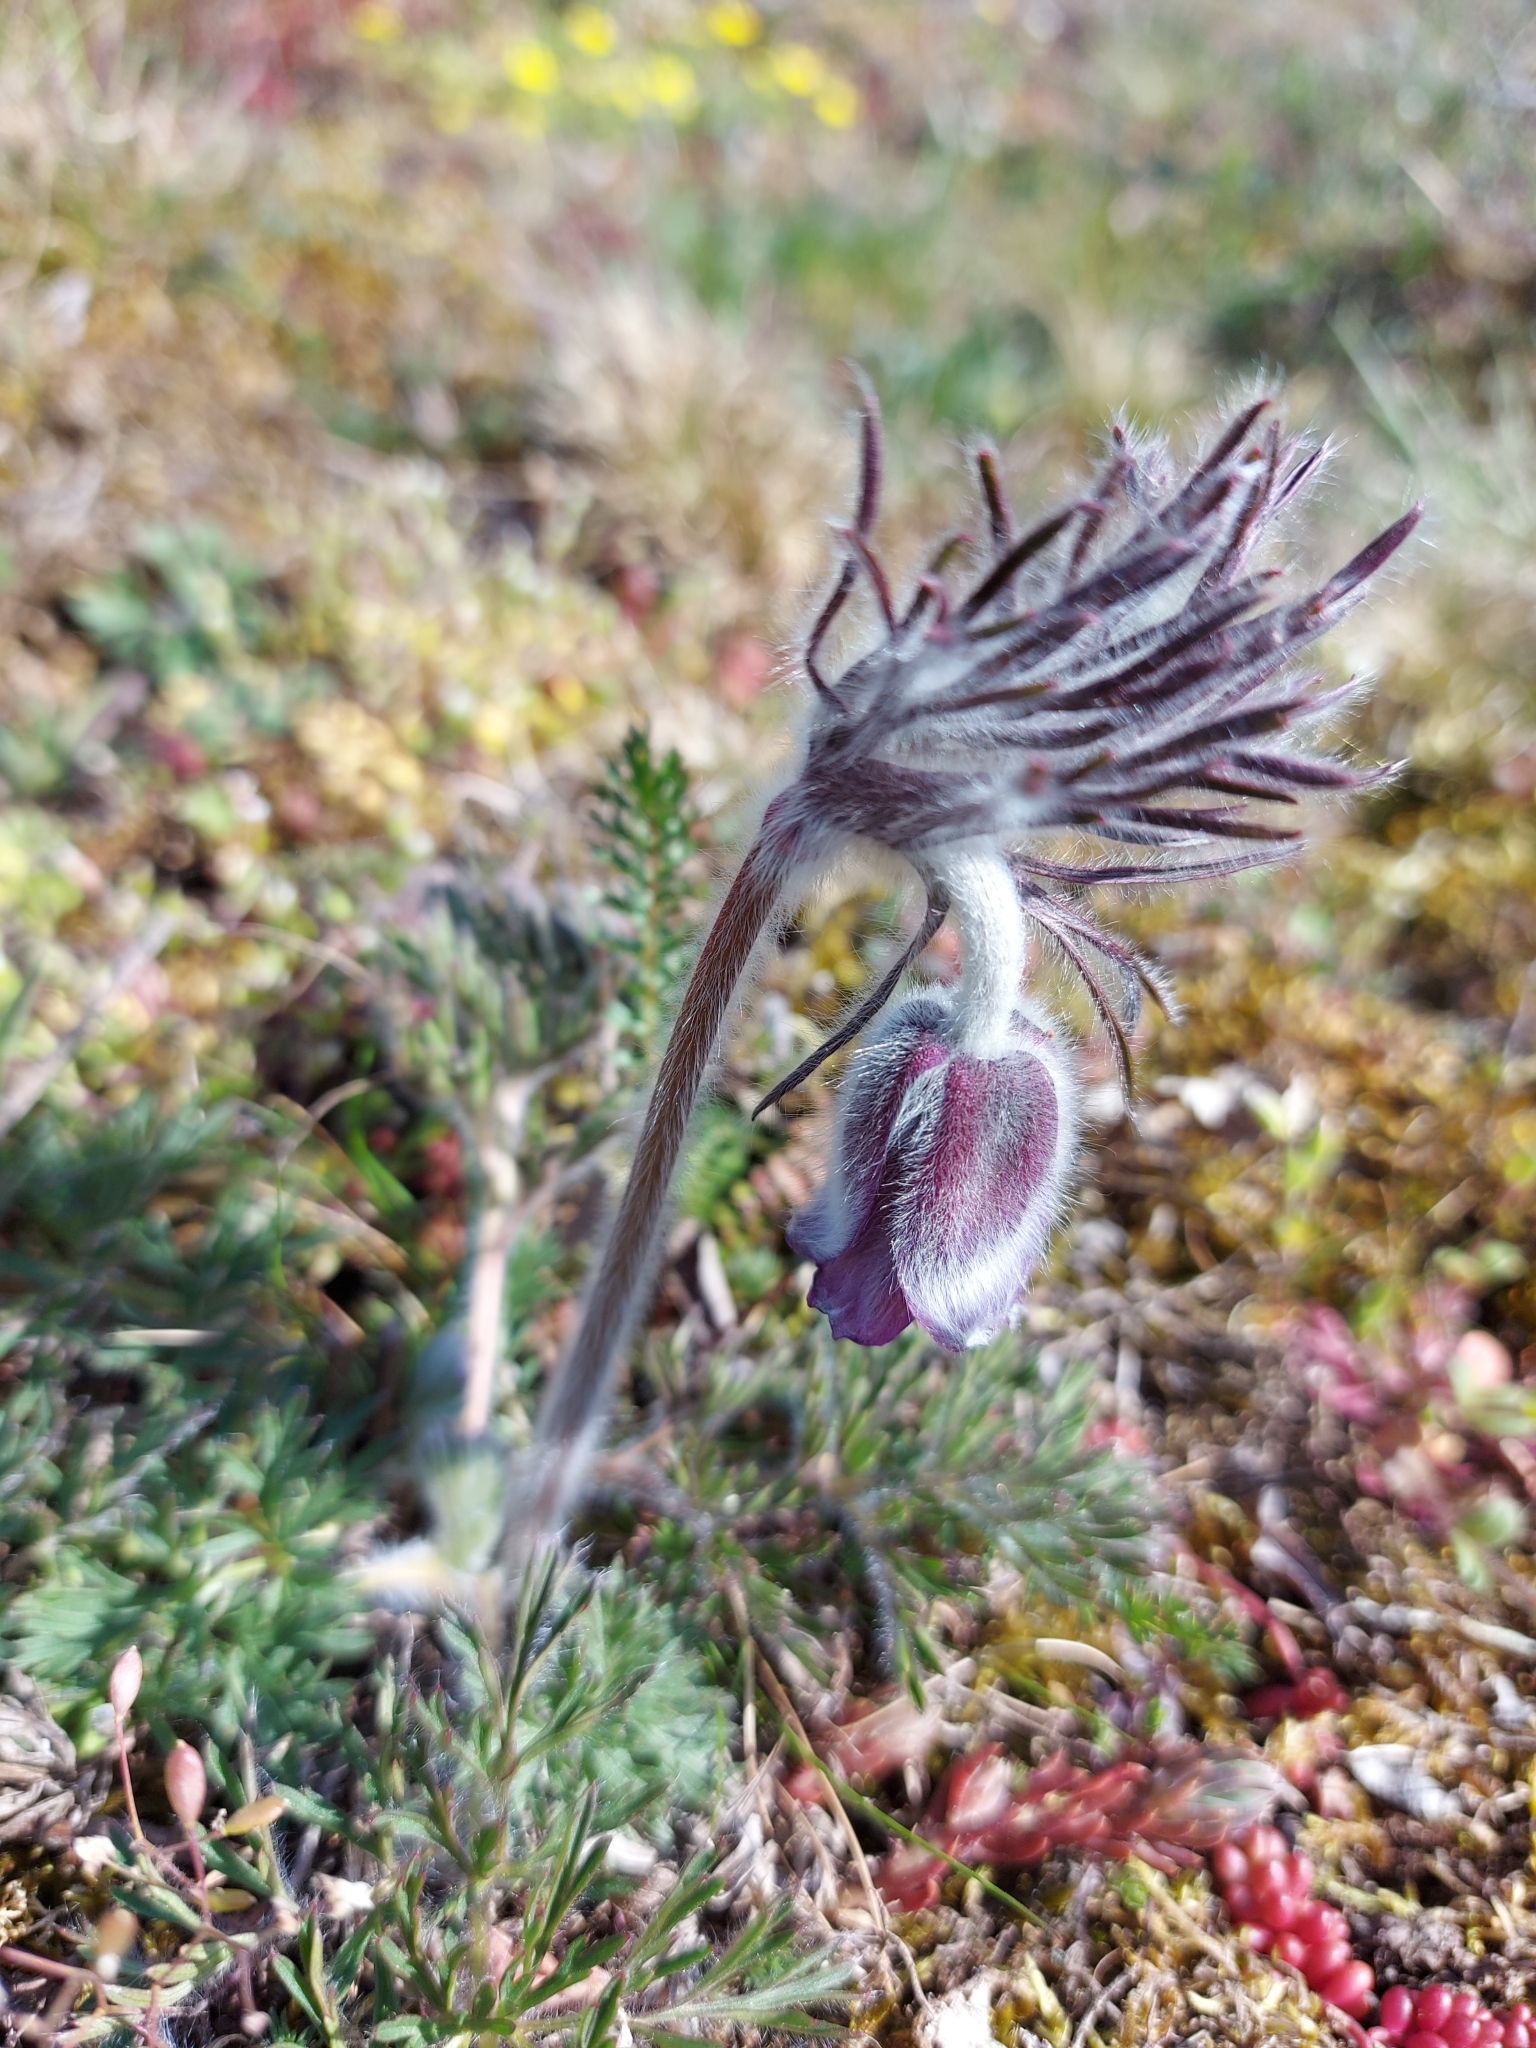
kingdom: Plantae
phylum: Tracheophyta
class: Magnoliopsida
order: Ranunculales
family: Ranunculaceae
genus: Pulsatilla
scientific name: Pulsatilla pratensis
